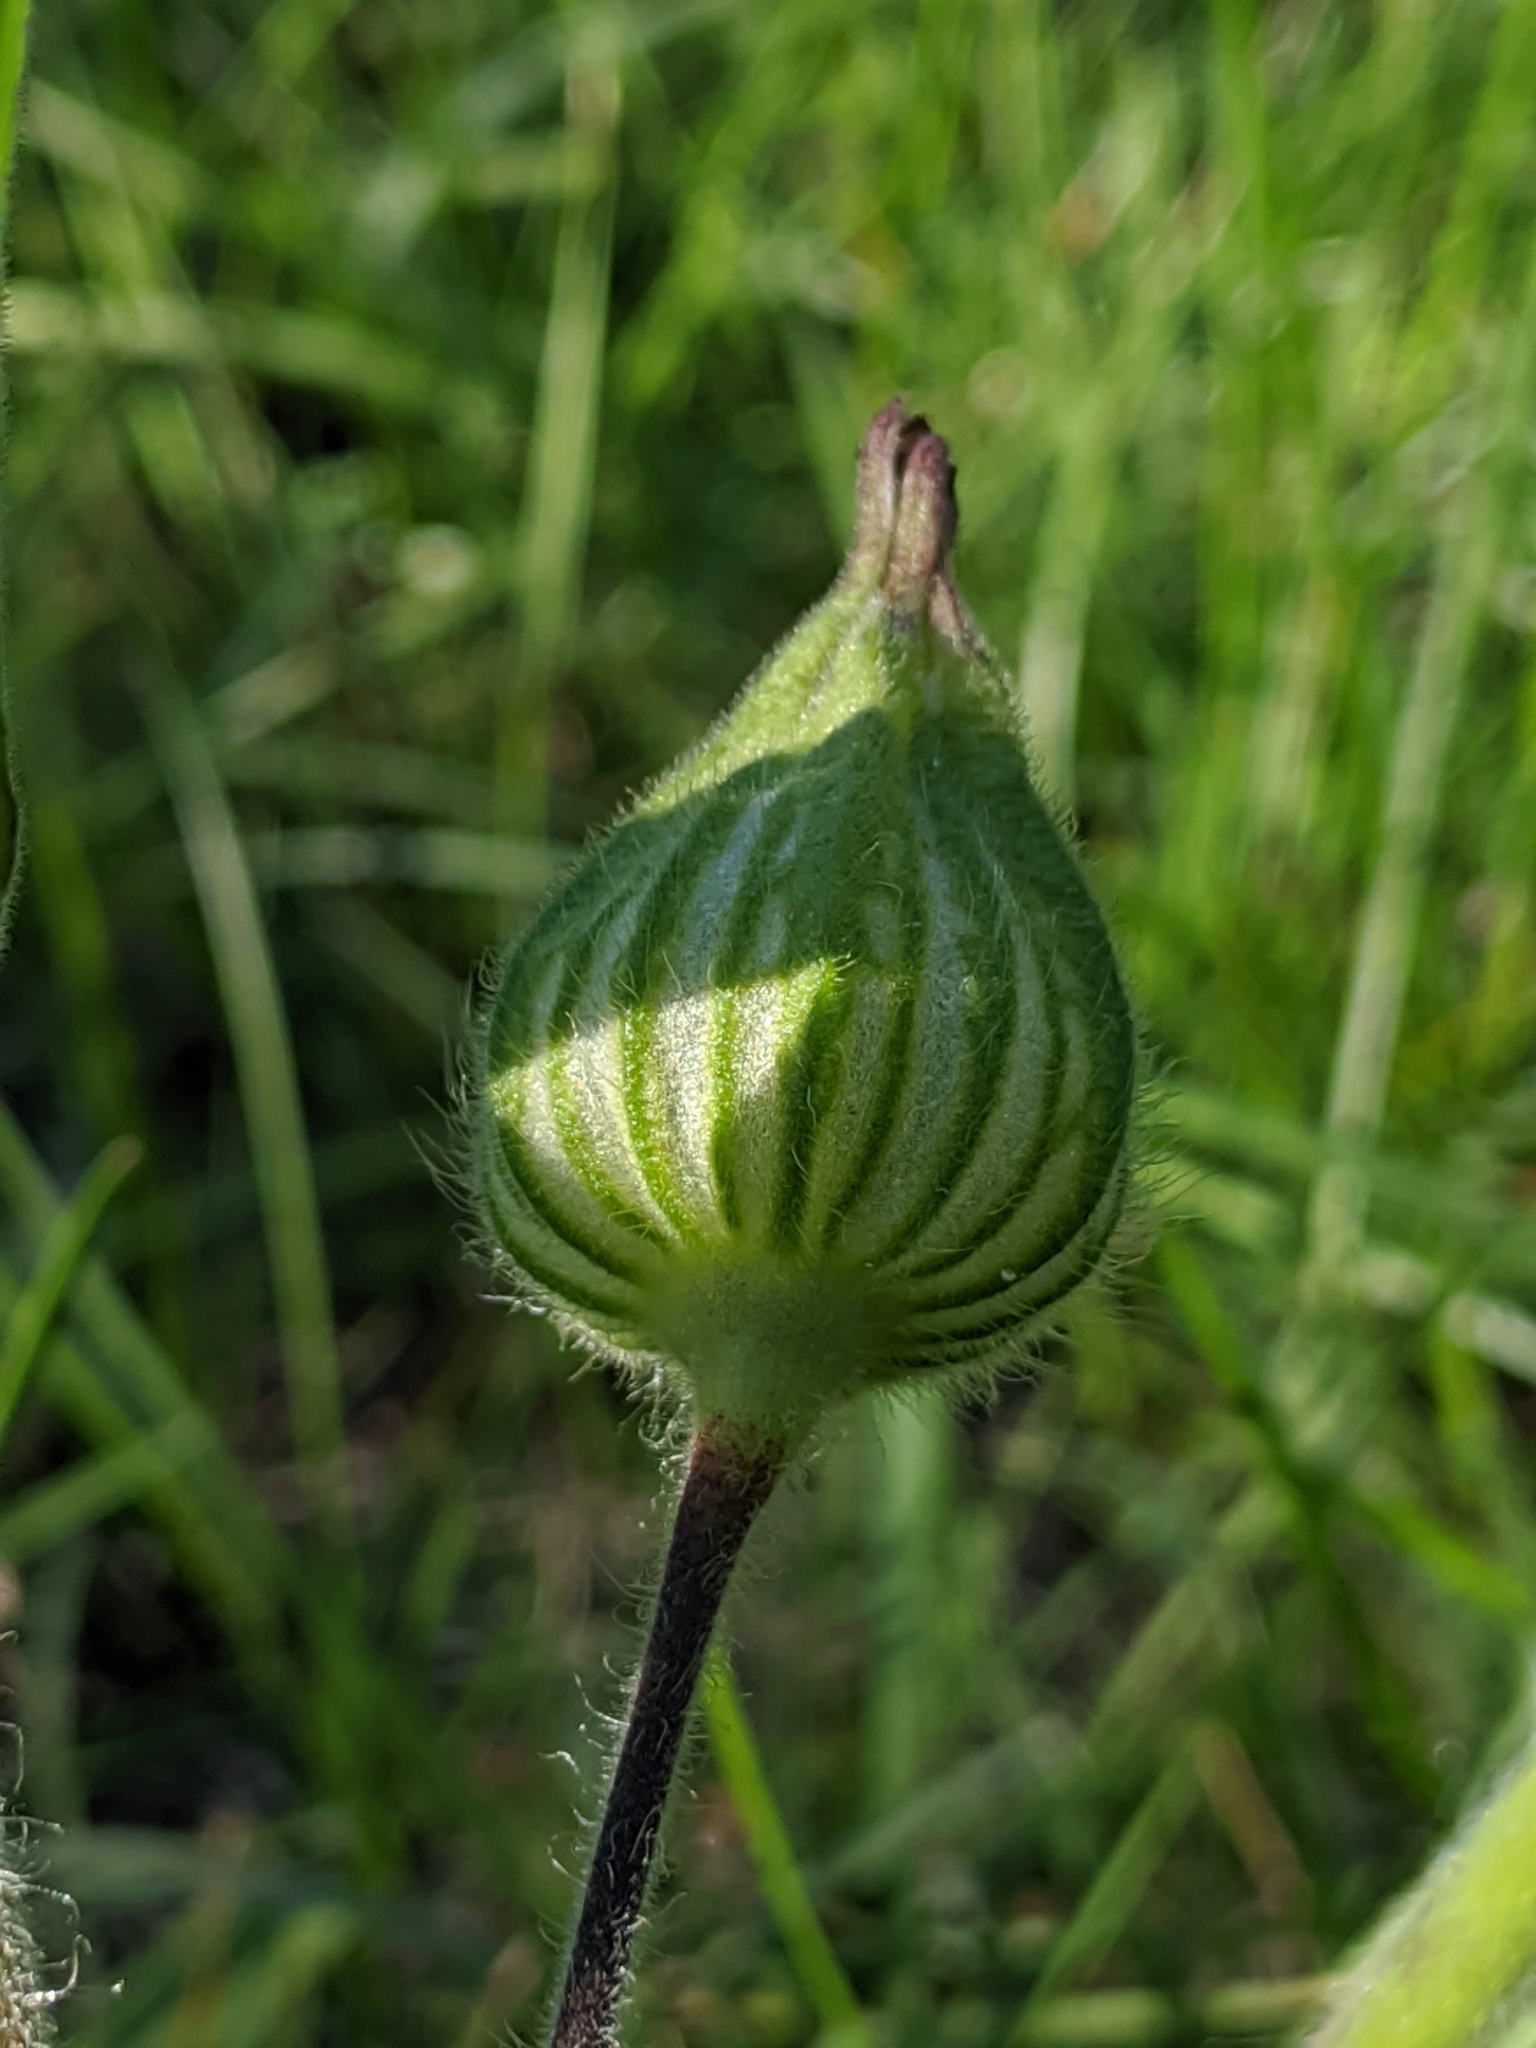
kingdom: Plantae
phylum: Tracheophyta
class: Magnoliopsida
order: Caryophyllales
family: Caryophyllaceae
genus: Silene
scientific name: Silene latifolia
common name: White campion
